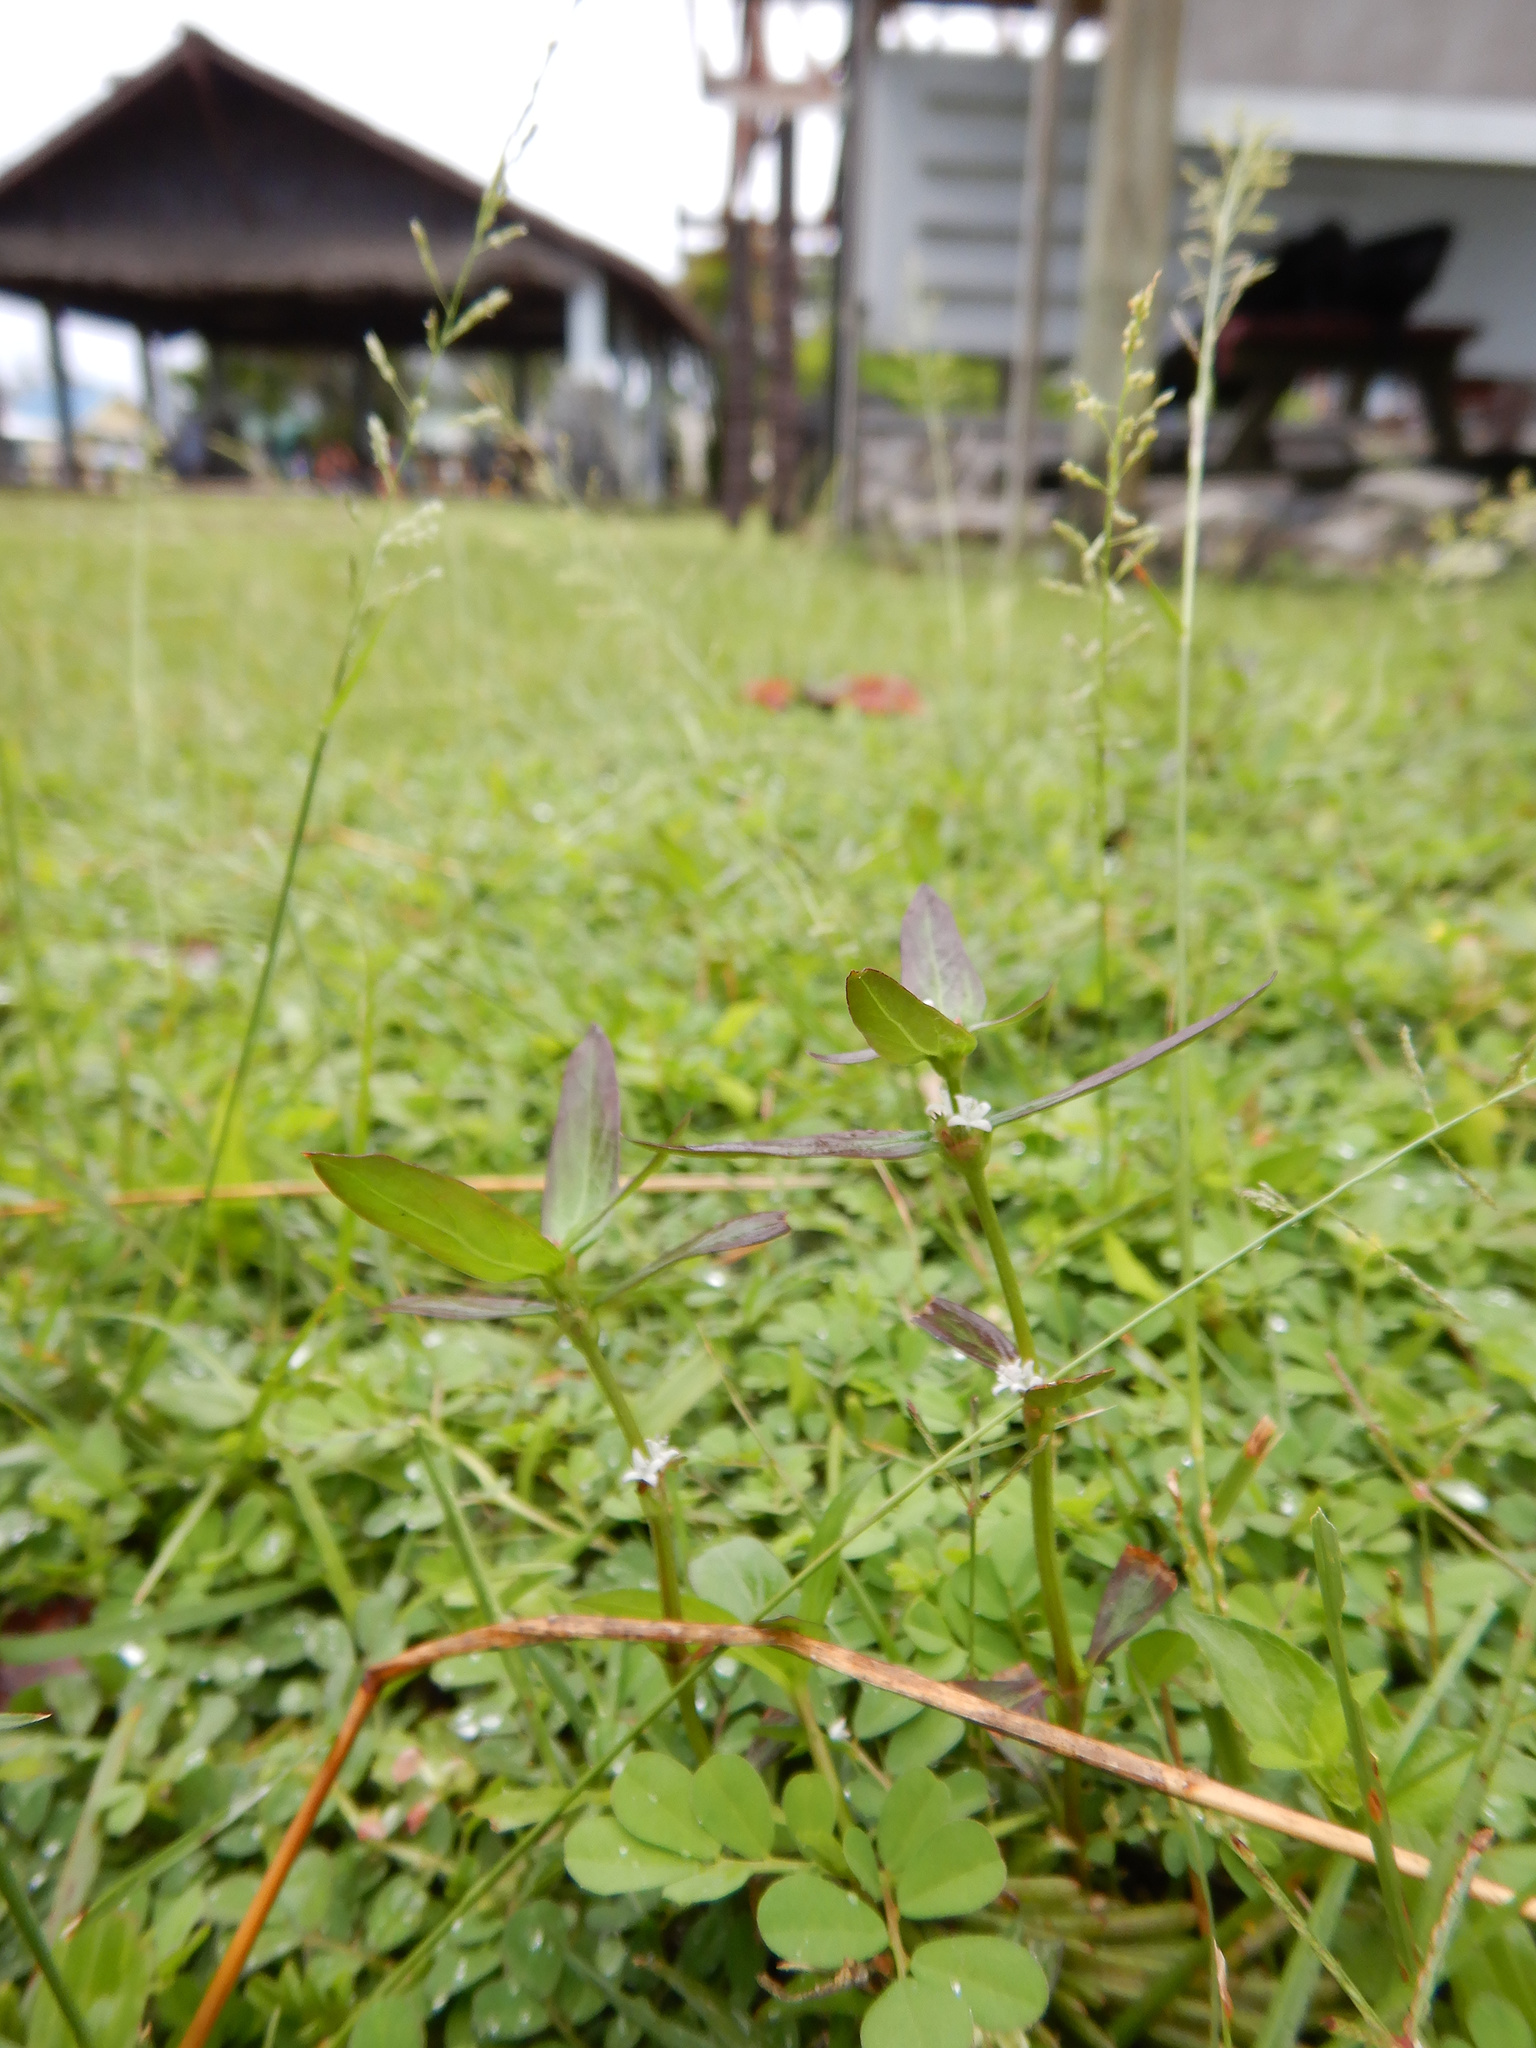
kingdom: Plantae
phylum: Tracheophyta
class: Magnoliopsida
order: Gentianales
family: Rubiaceae
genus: Spermacoce
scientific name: Spermacoce remota
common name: Woodland false buttonweed
